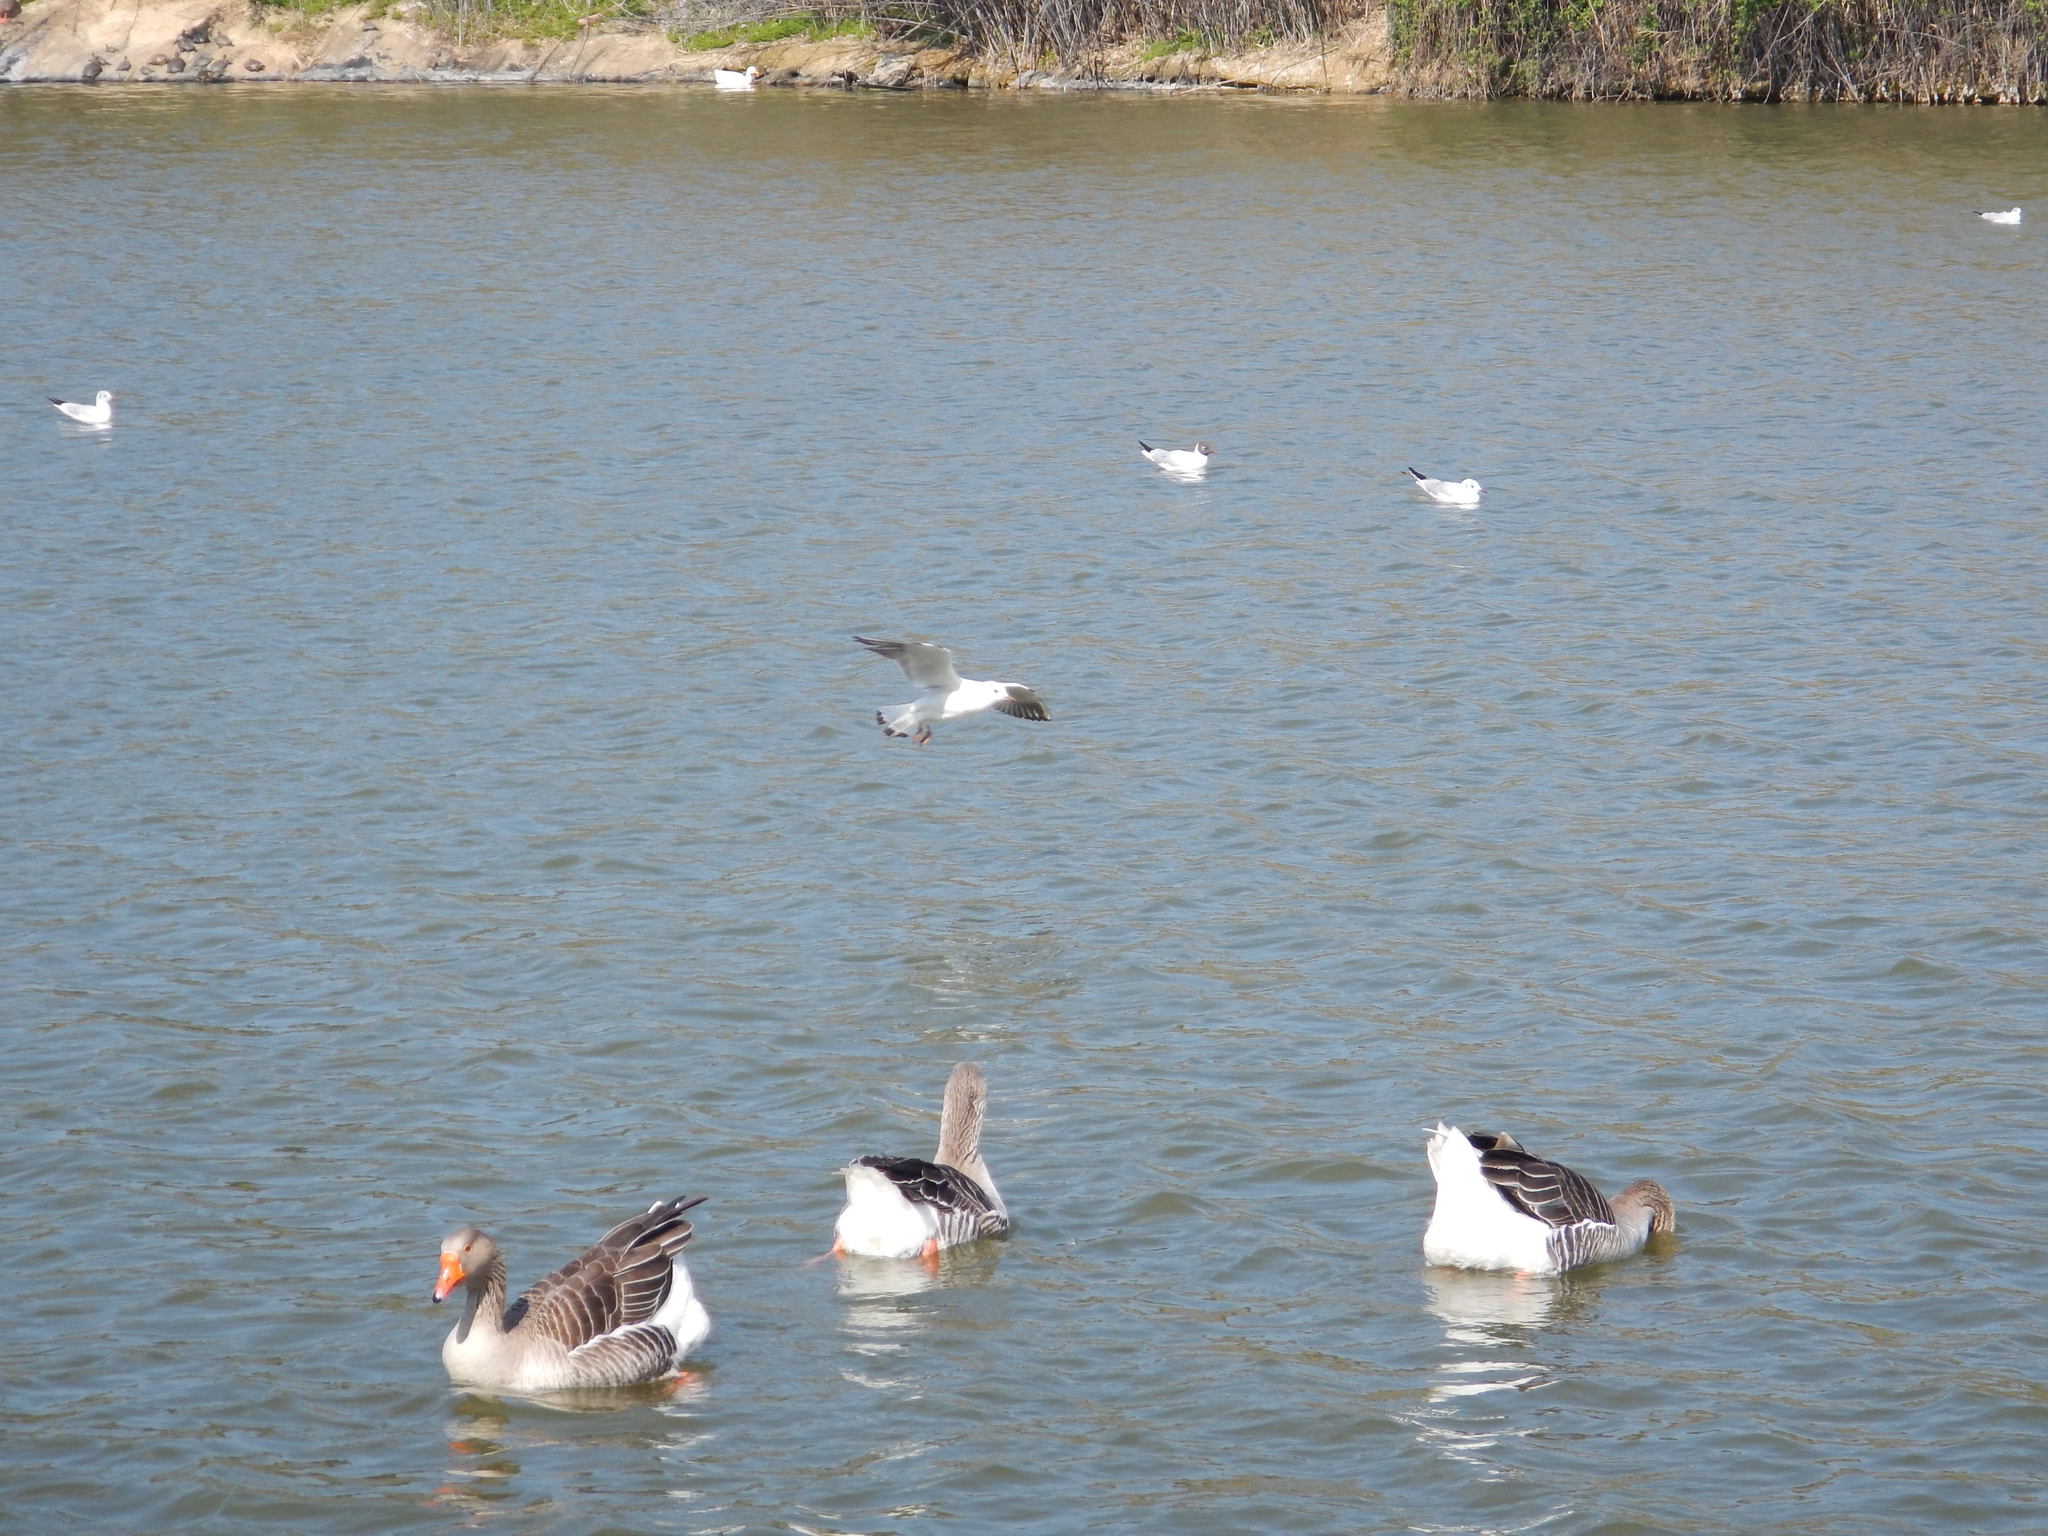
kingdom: Animalia
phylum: Chordata
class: Aves
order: Anseriformes
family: Anatidae
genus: Anser
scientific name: Anser anser
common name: Greylag goose
